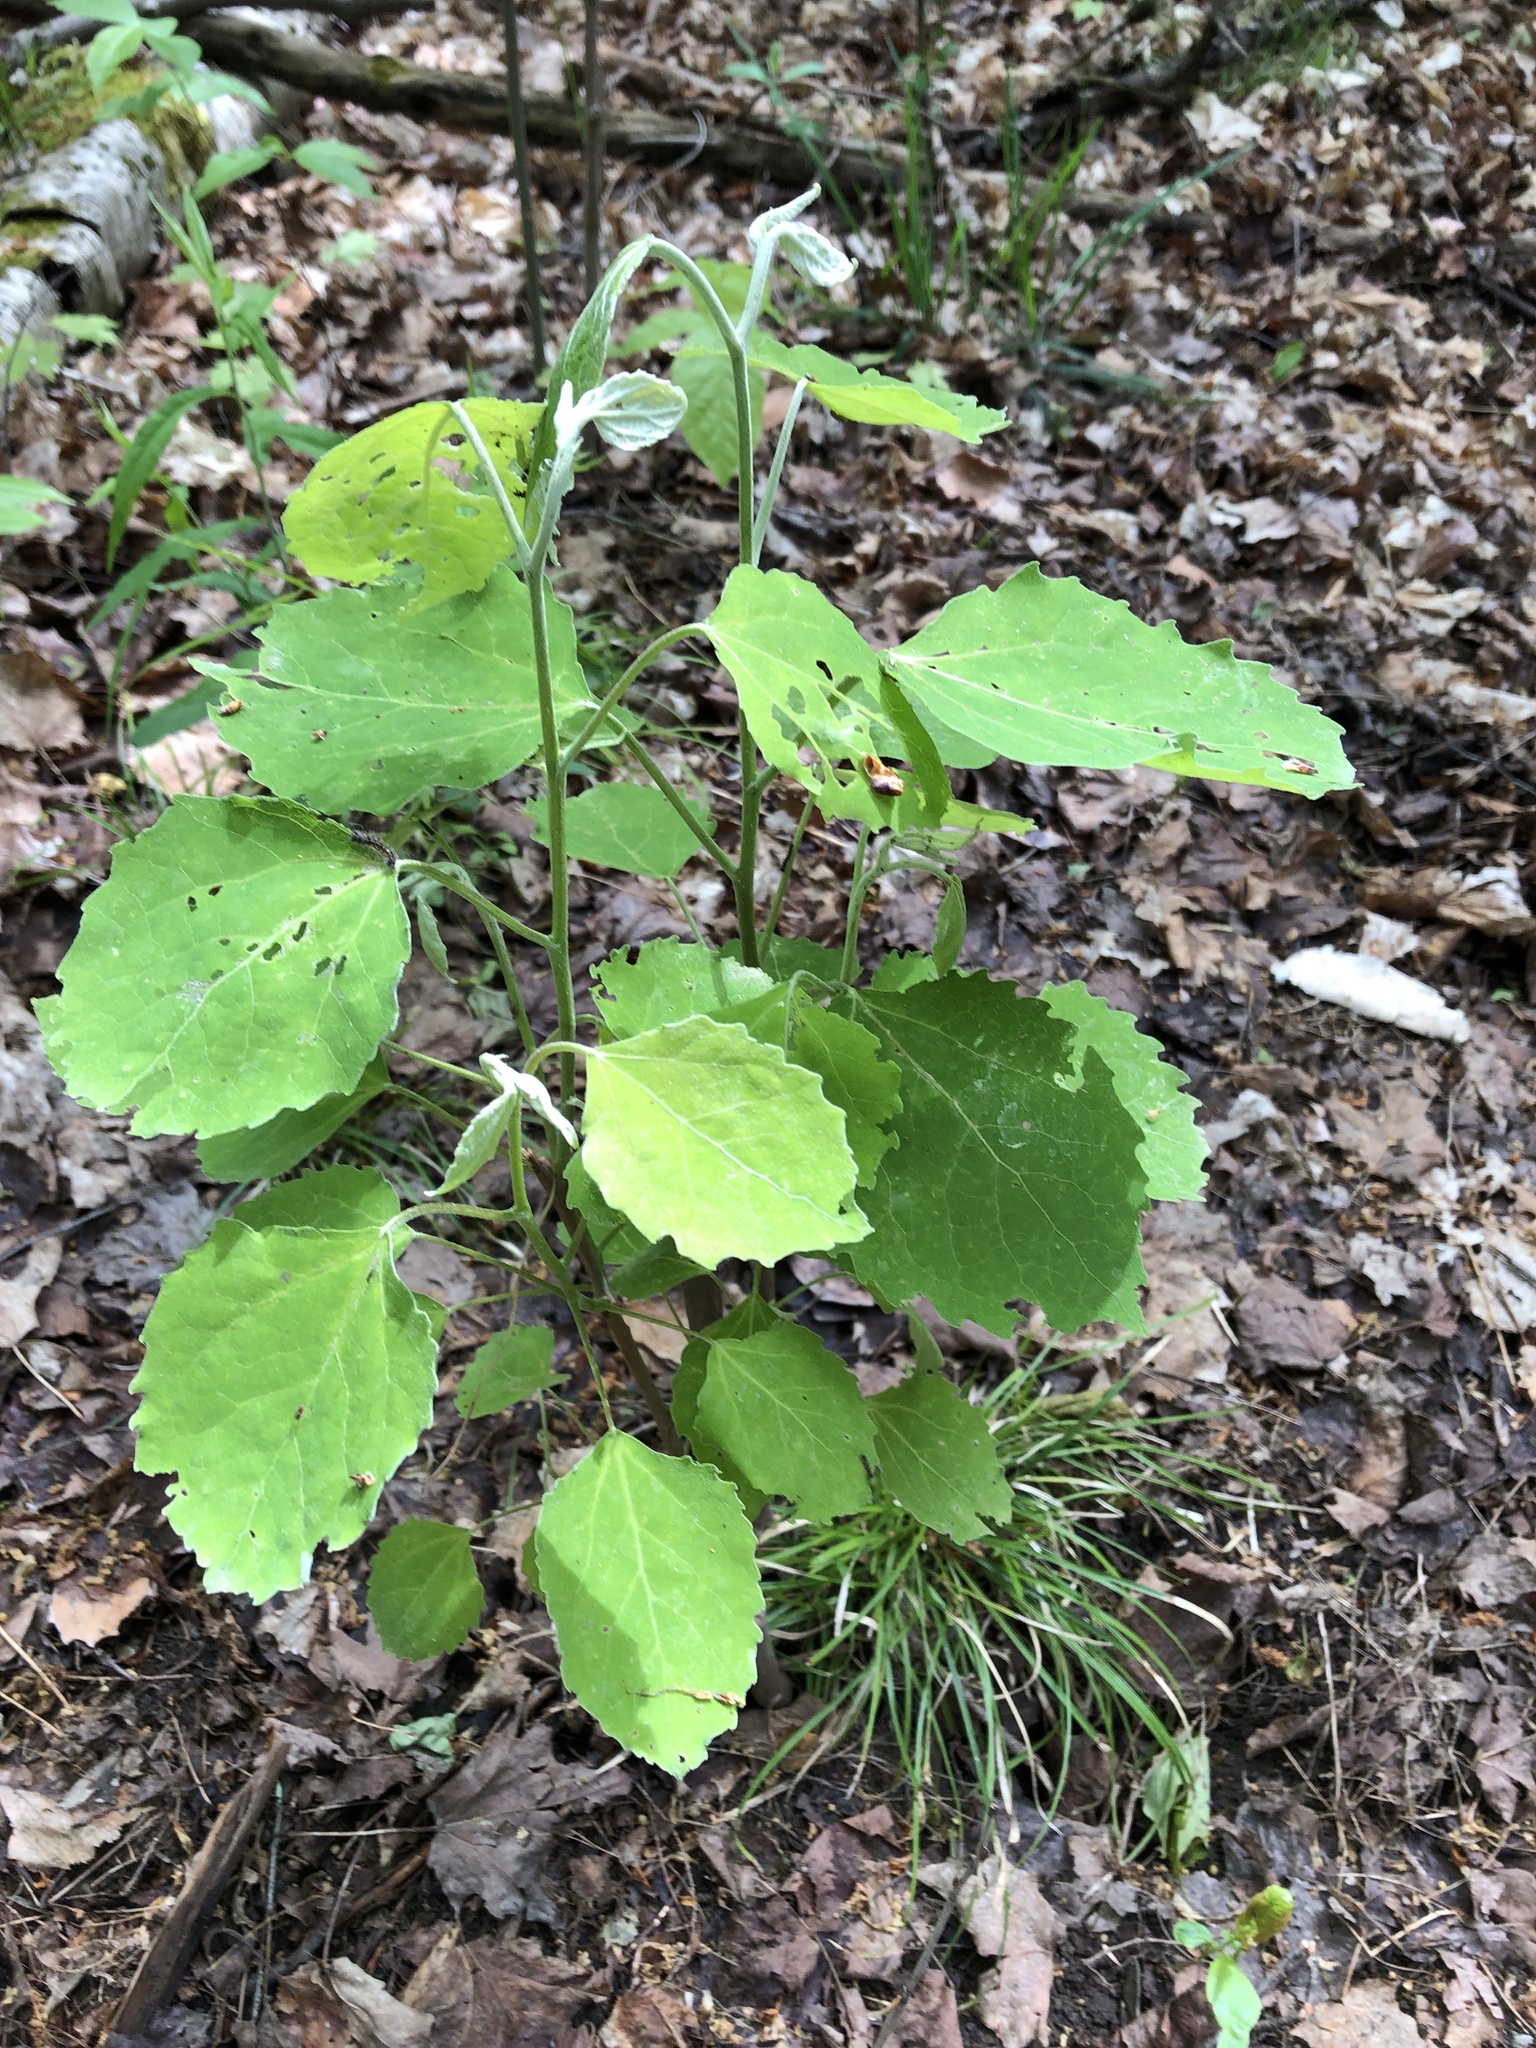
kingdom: Plantae
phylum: Tracheophyta
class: Magnoliopsida
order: Malpighiales
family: Salicaceae
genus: Populus
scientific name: Populus alba
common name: White poplar
